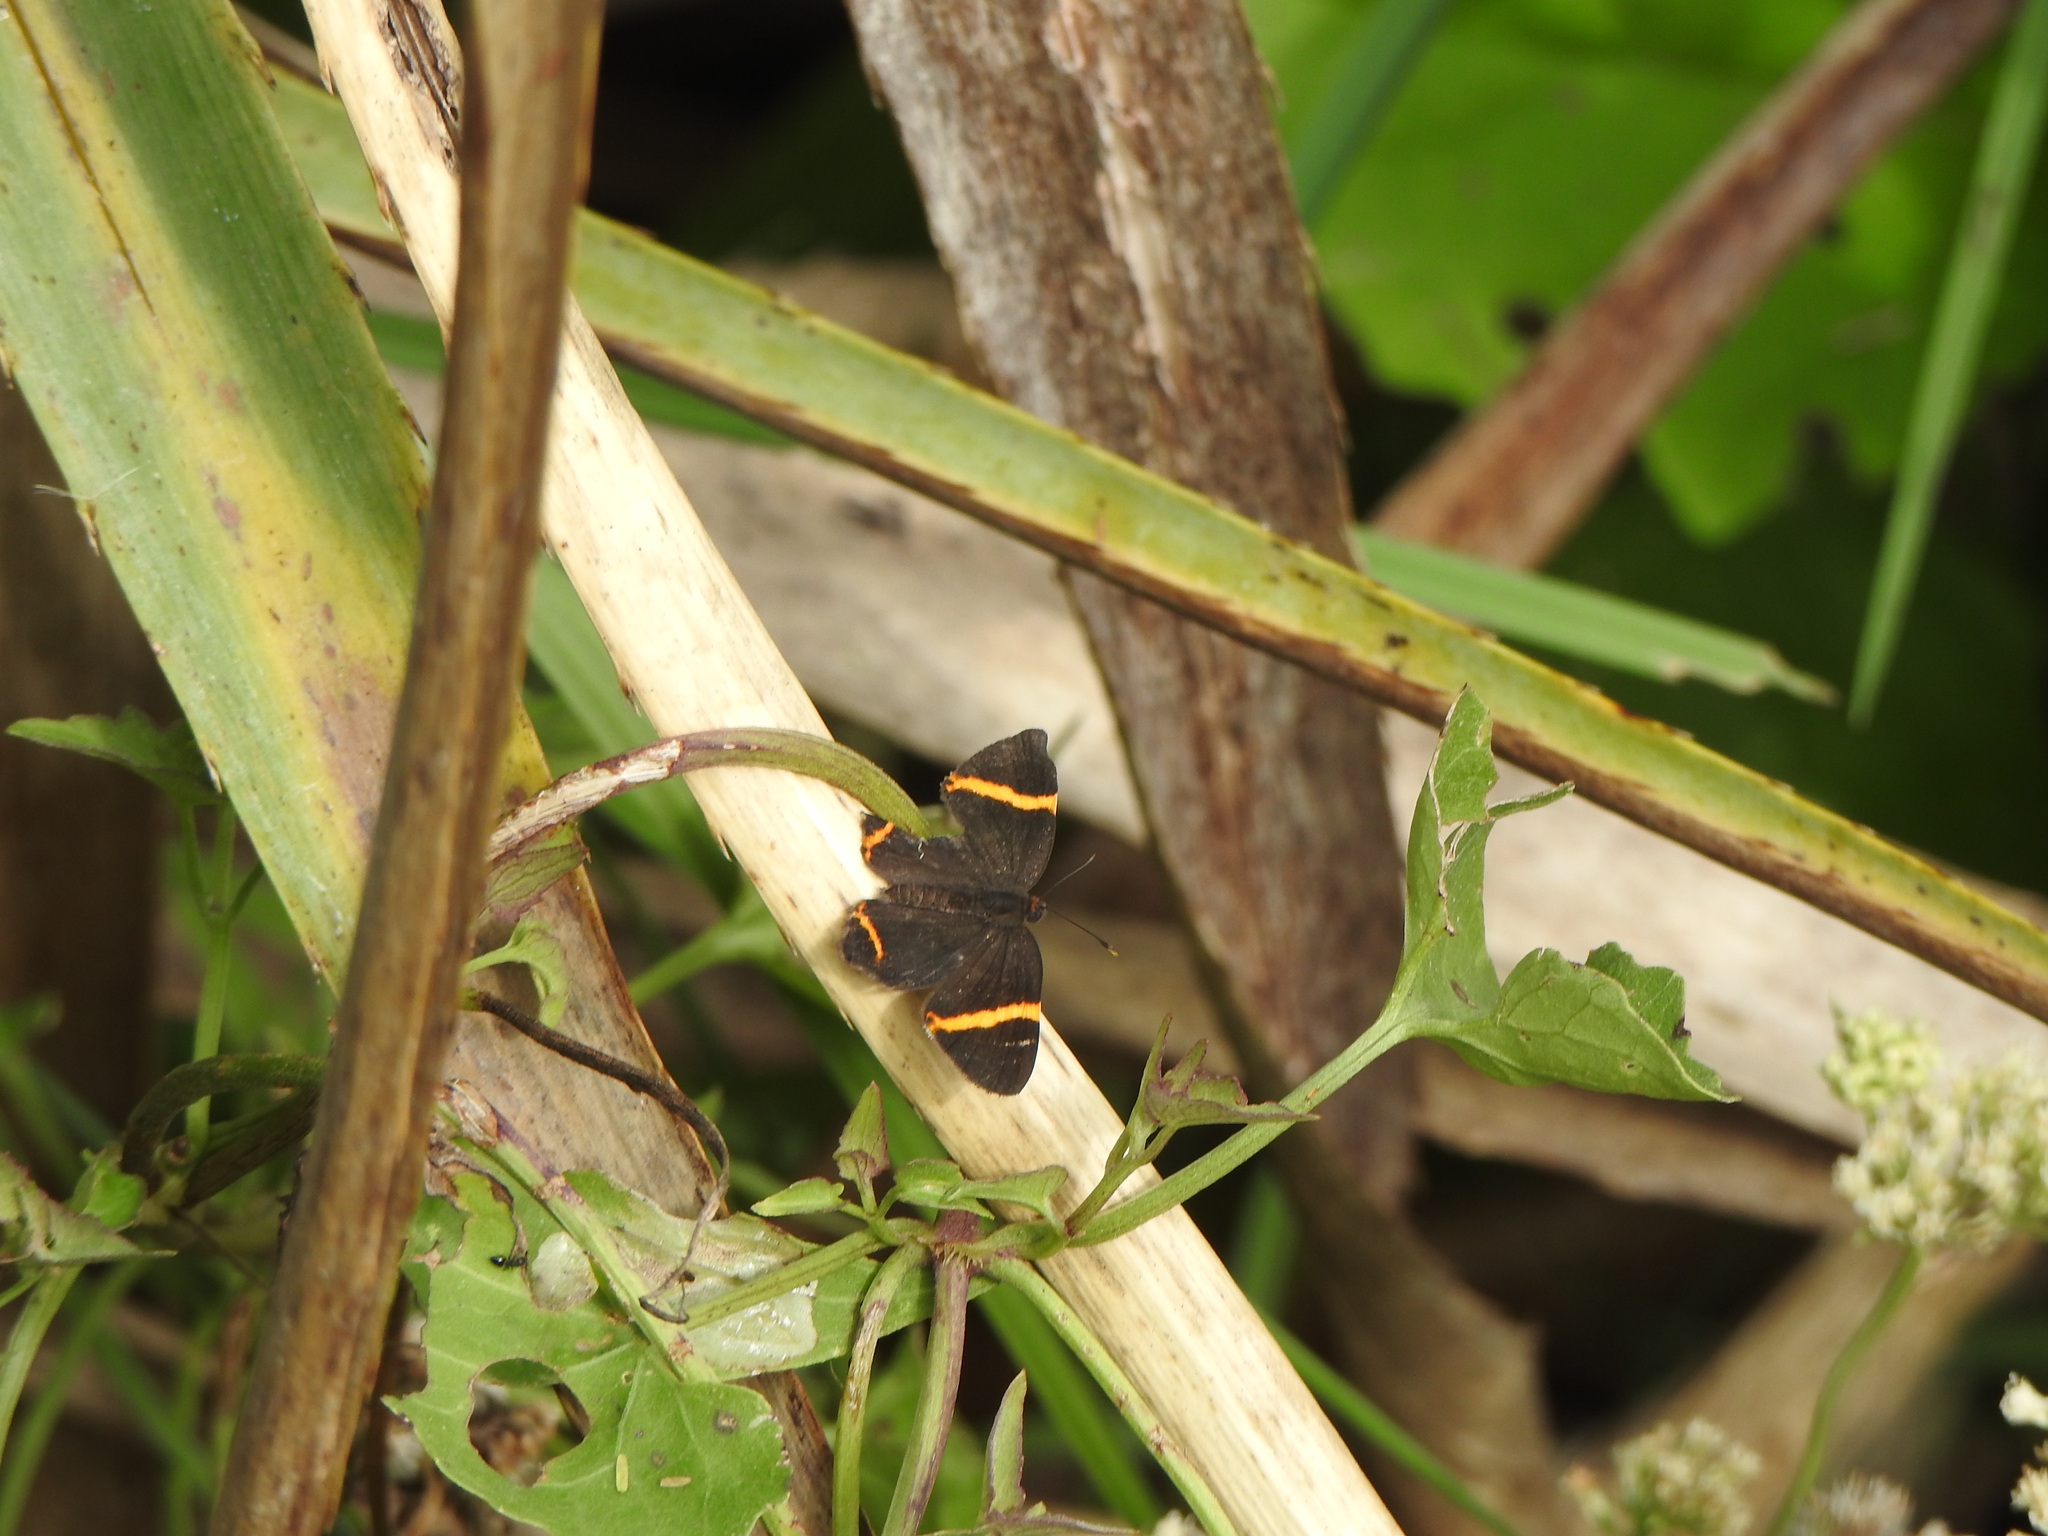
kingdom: Animalia
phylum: Arthropoda
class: Insecta
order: Lepidoptera
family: Riodinidae
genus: Riodina
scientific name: Riodina lysippoides
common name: Little dancer metalmark
